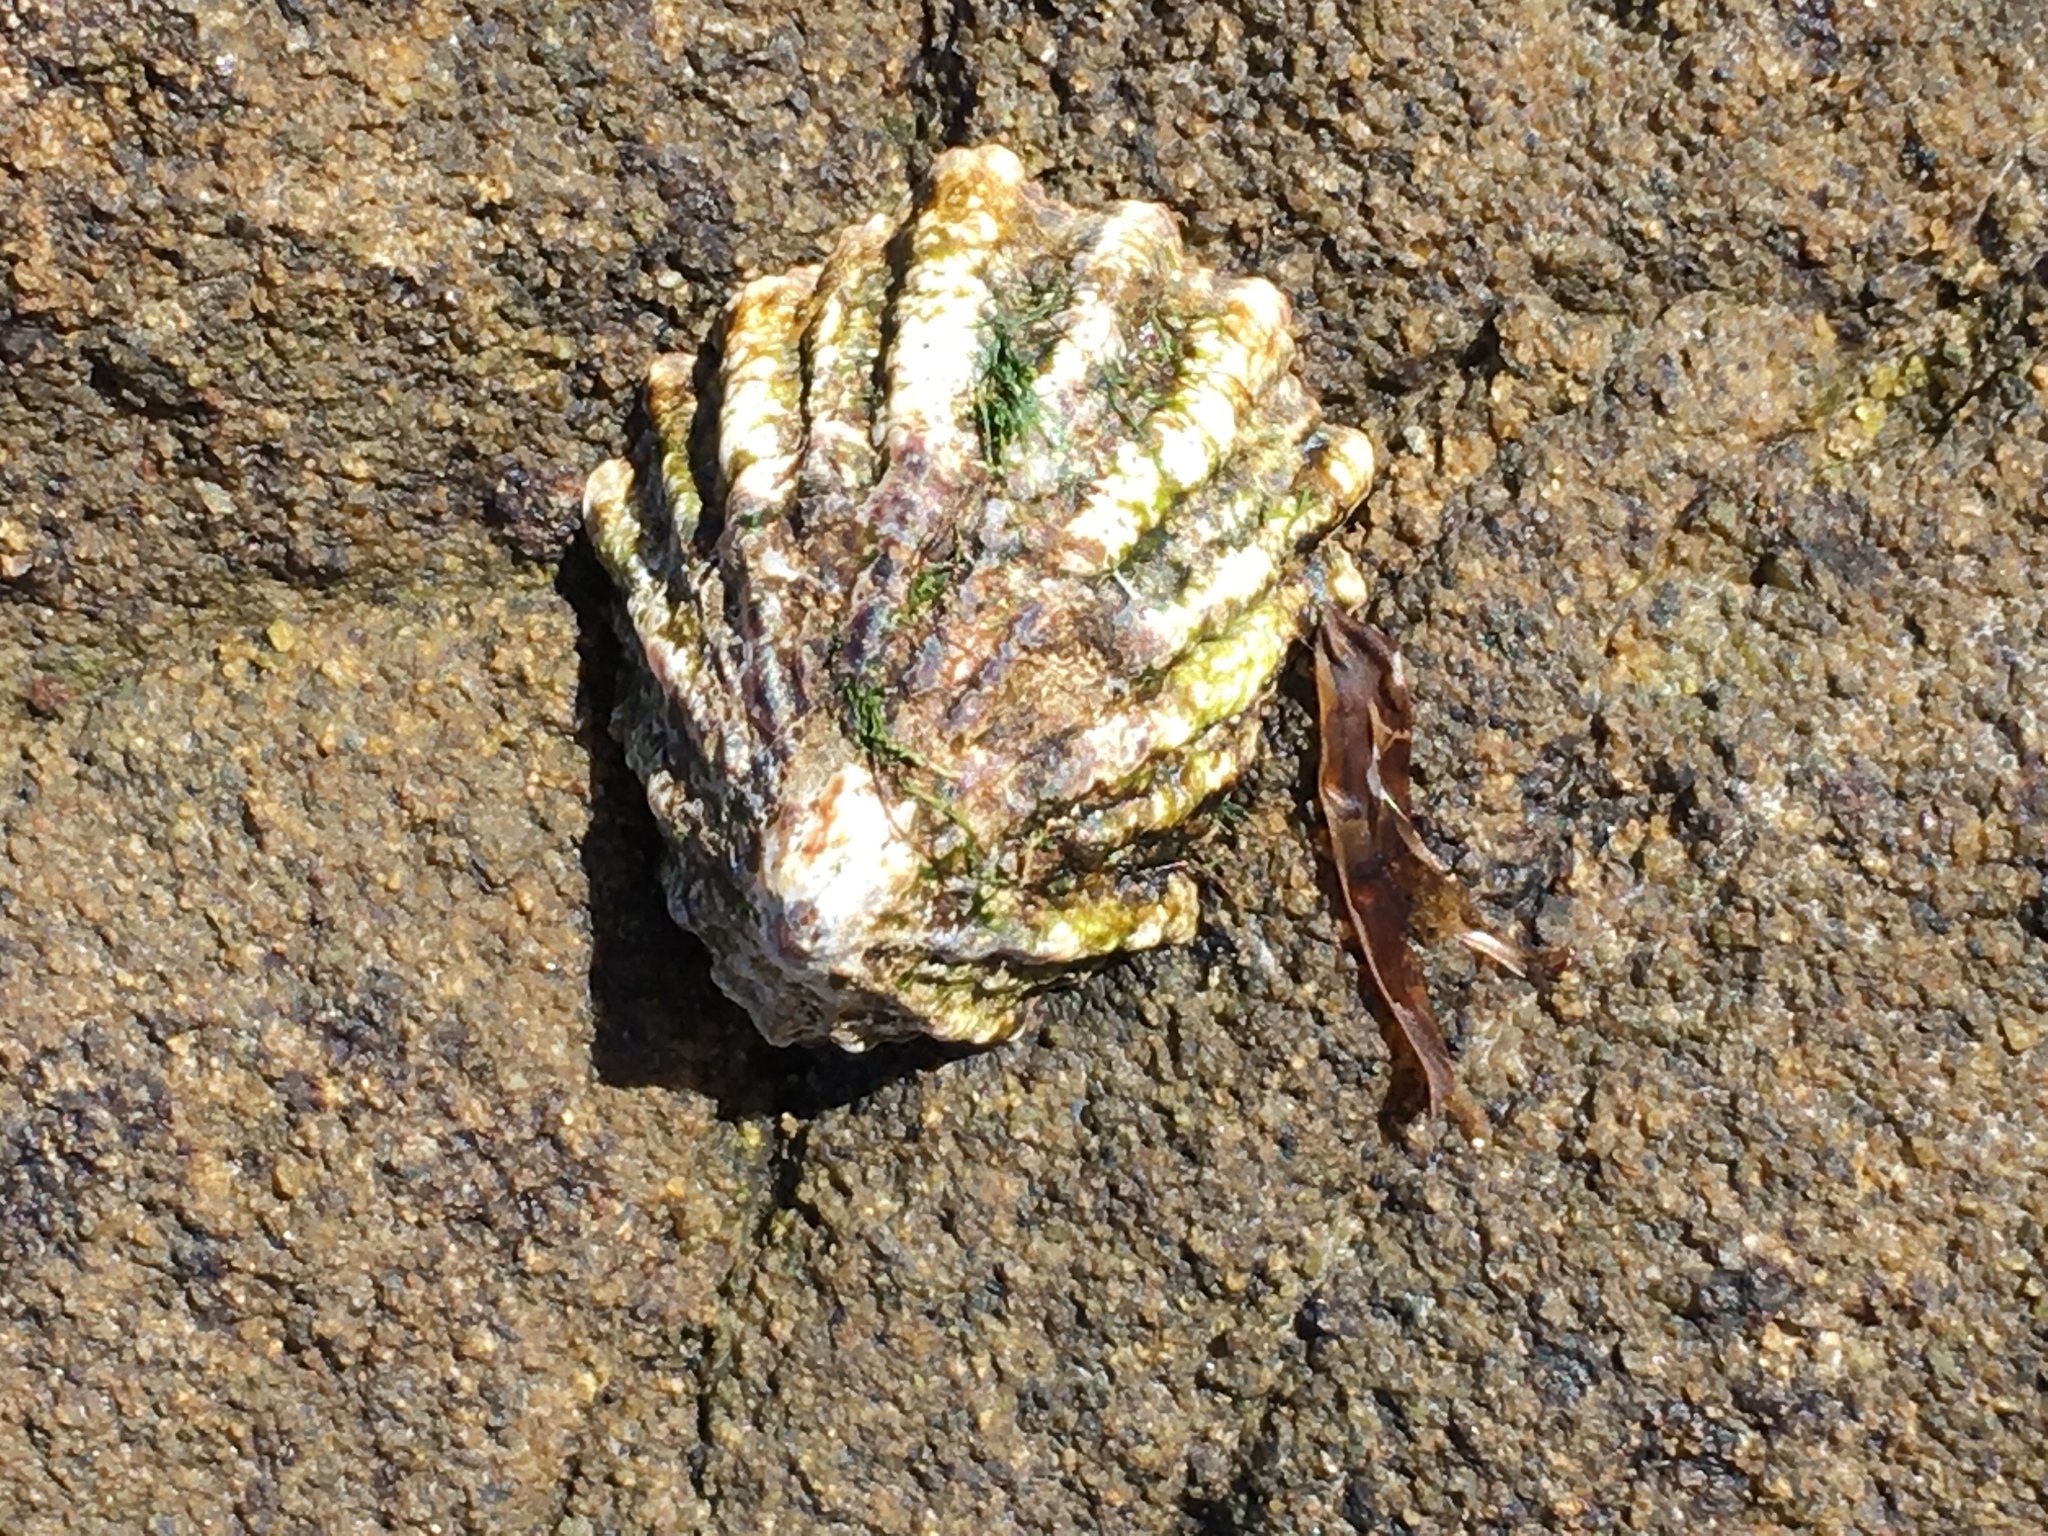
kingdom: Animalia
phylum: Mollusca
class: Gastropoda
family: Lottiidae
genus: Lottia
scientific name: Lottia scabra
